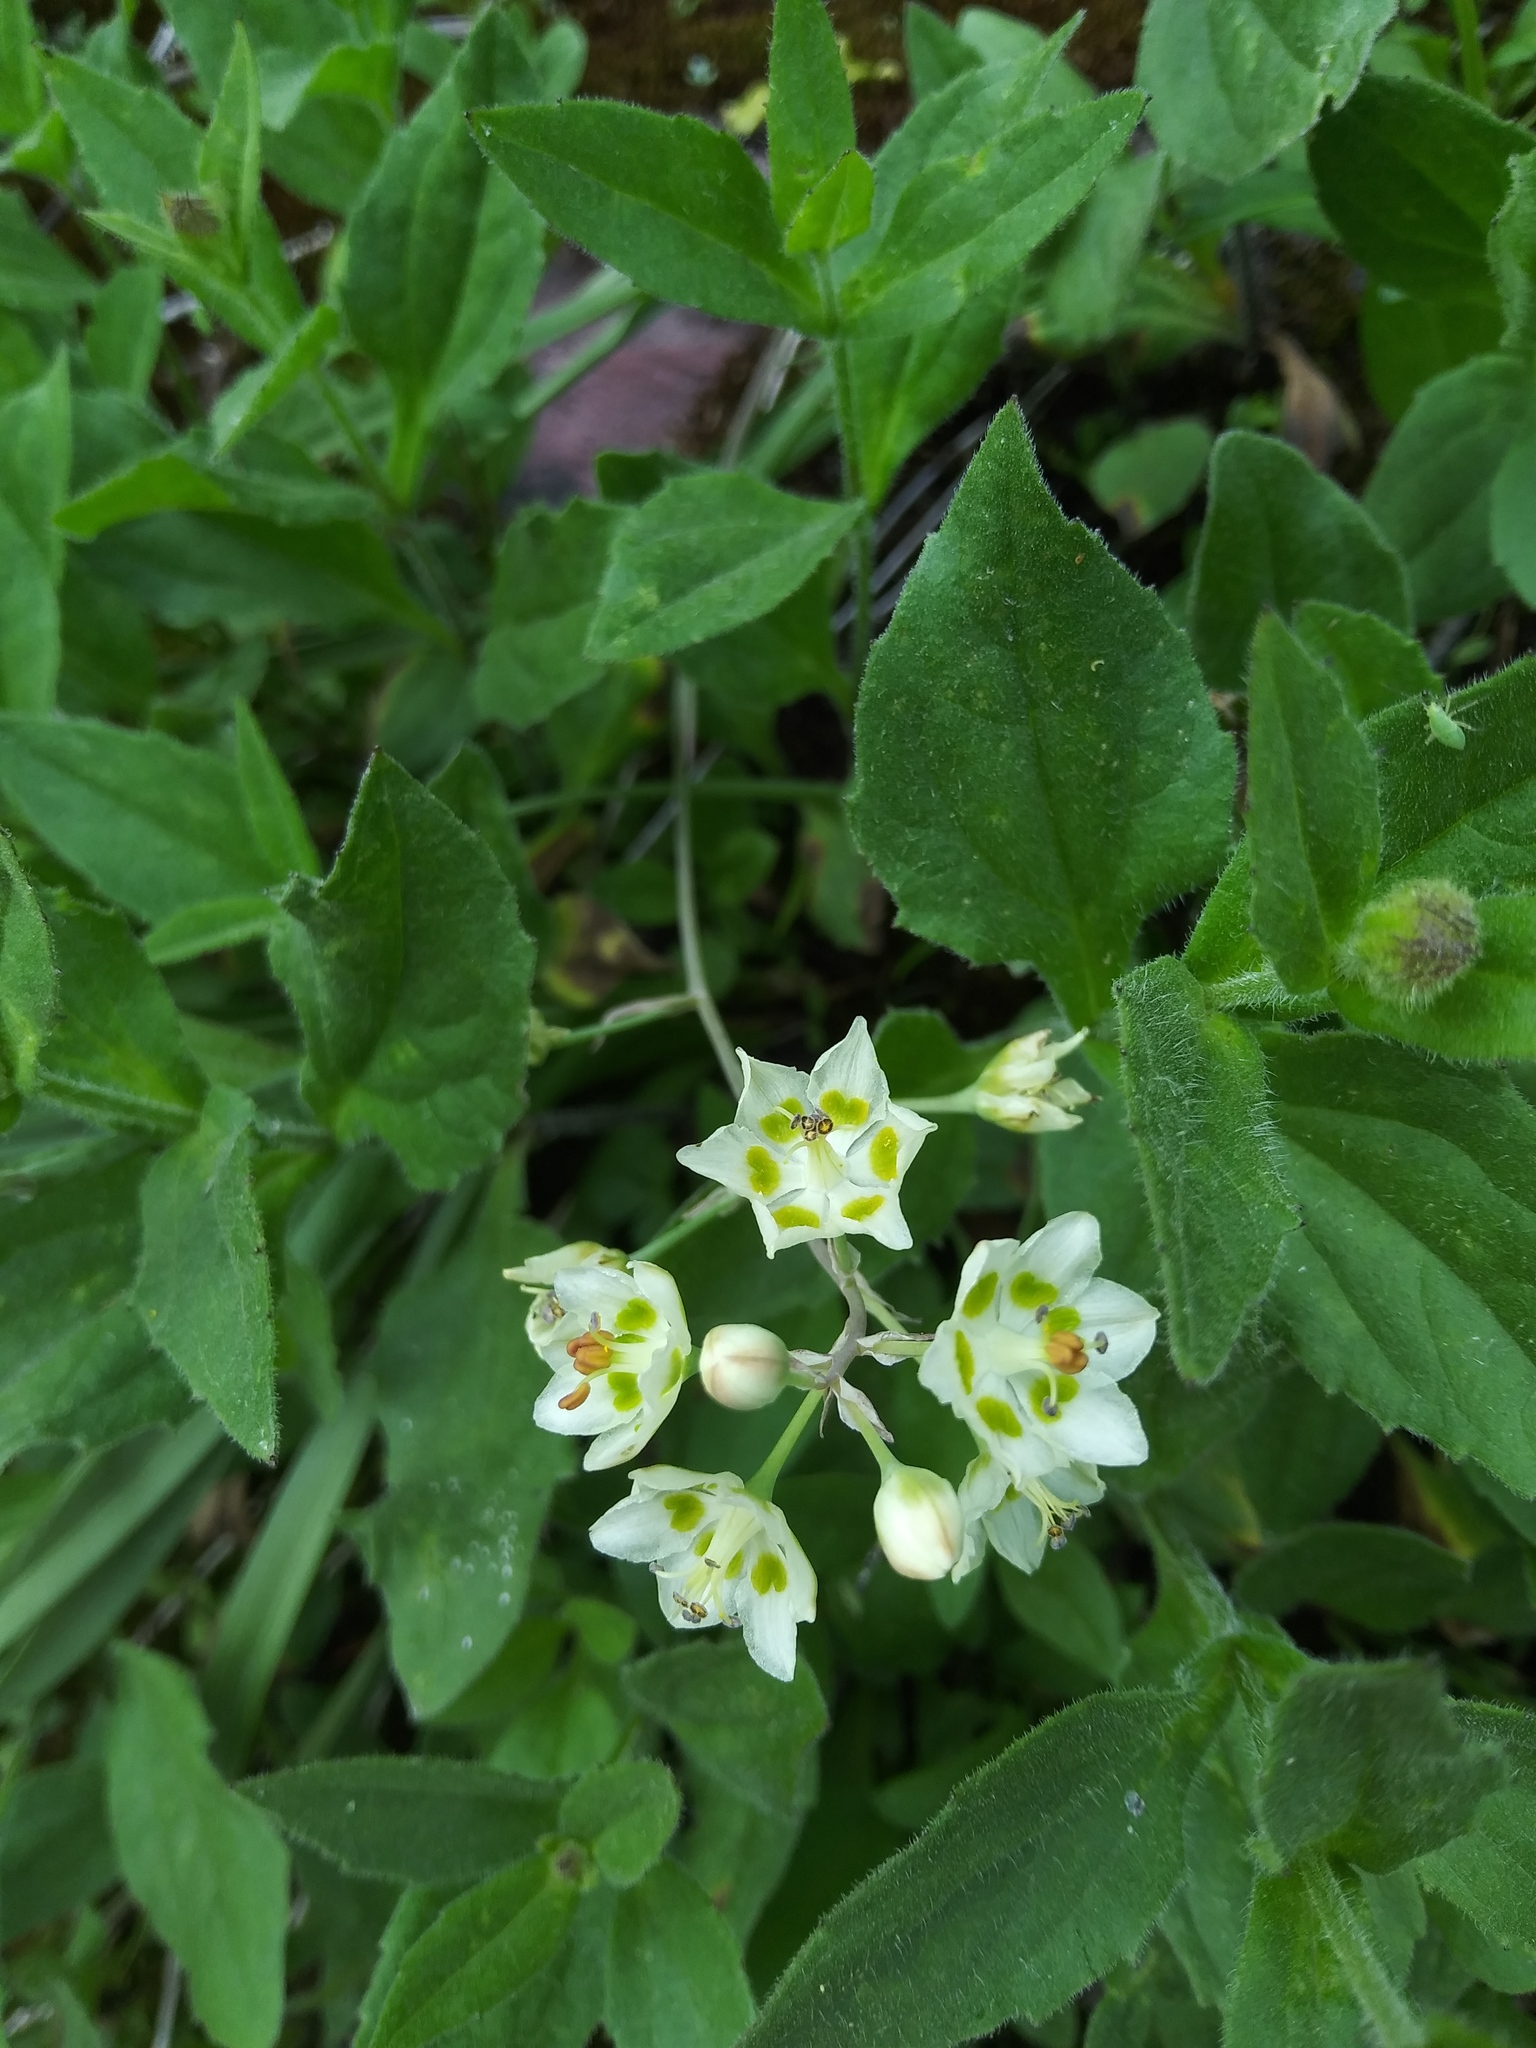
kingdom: Plantae
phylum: Tracheophyta
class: Liliopsida
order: Liliales
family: Melanthiaceae
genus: Anticlea
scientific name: Anticlea elegans
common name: Mountain death camas
